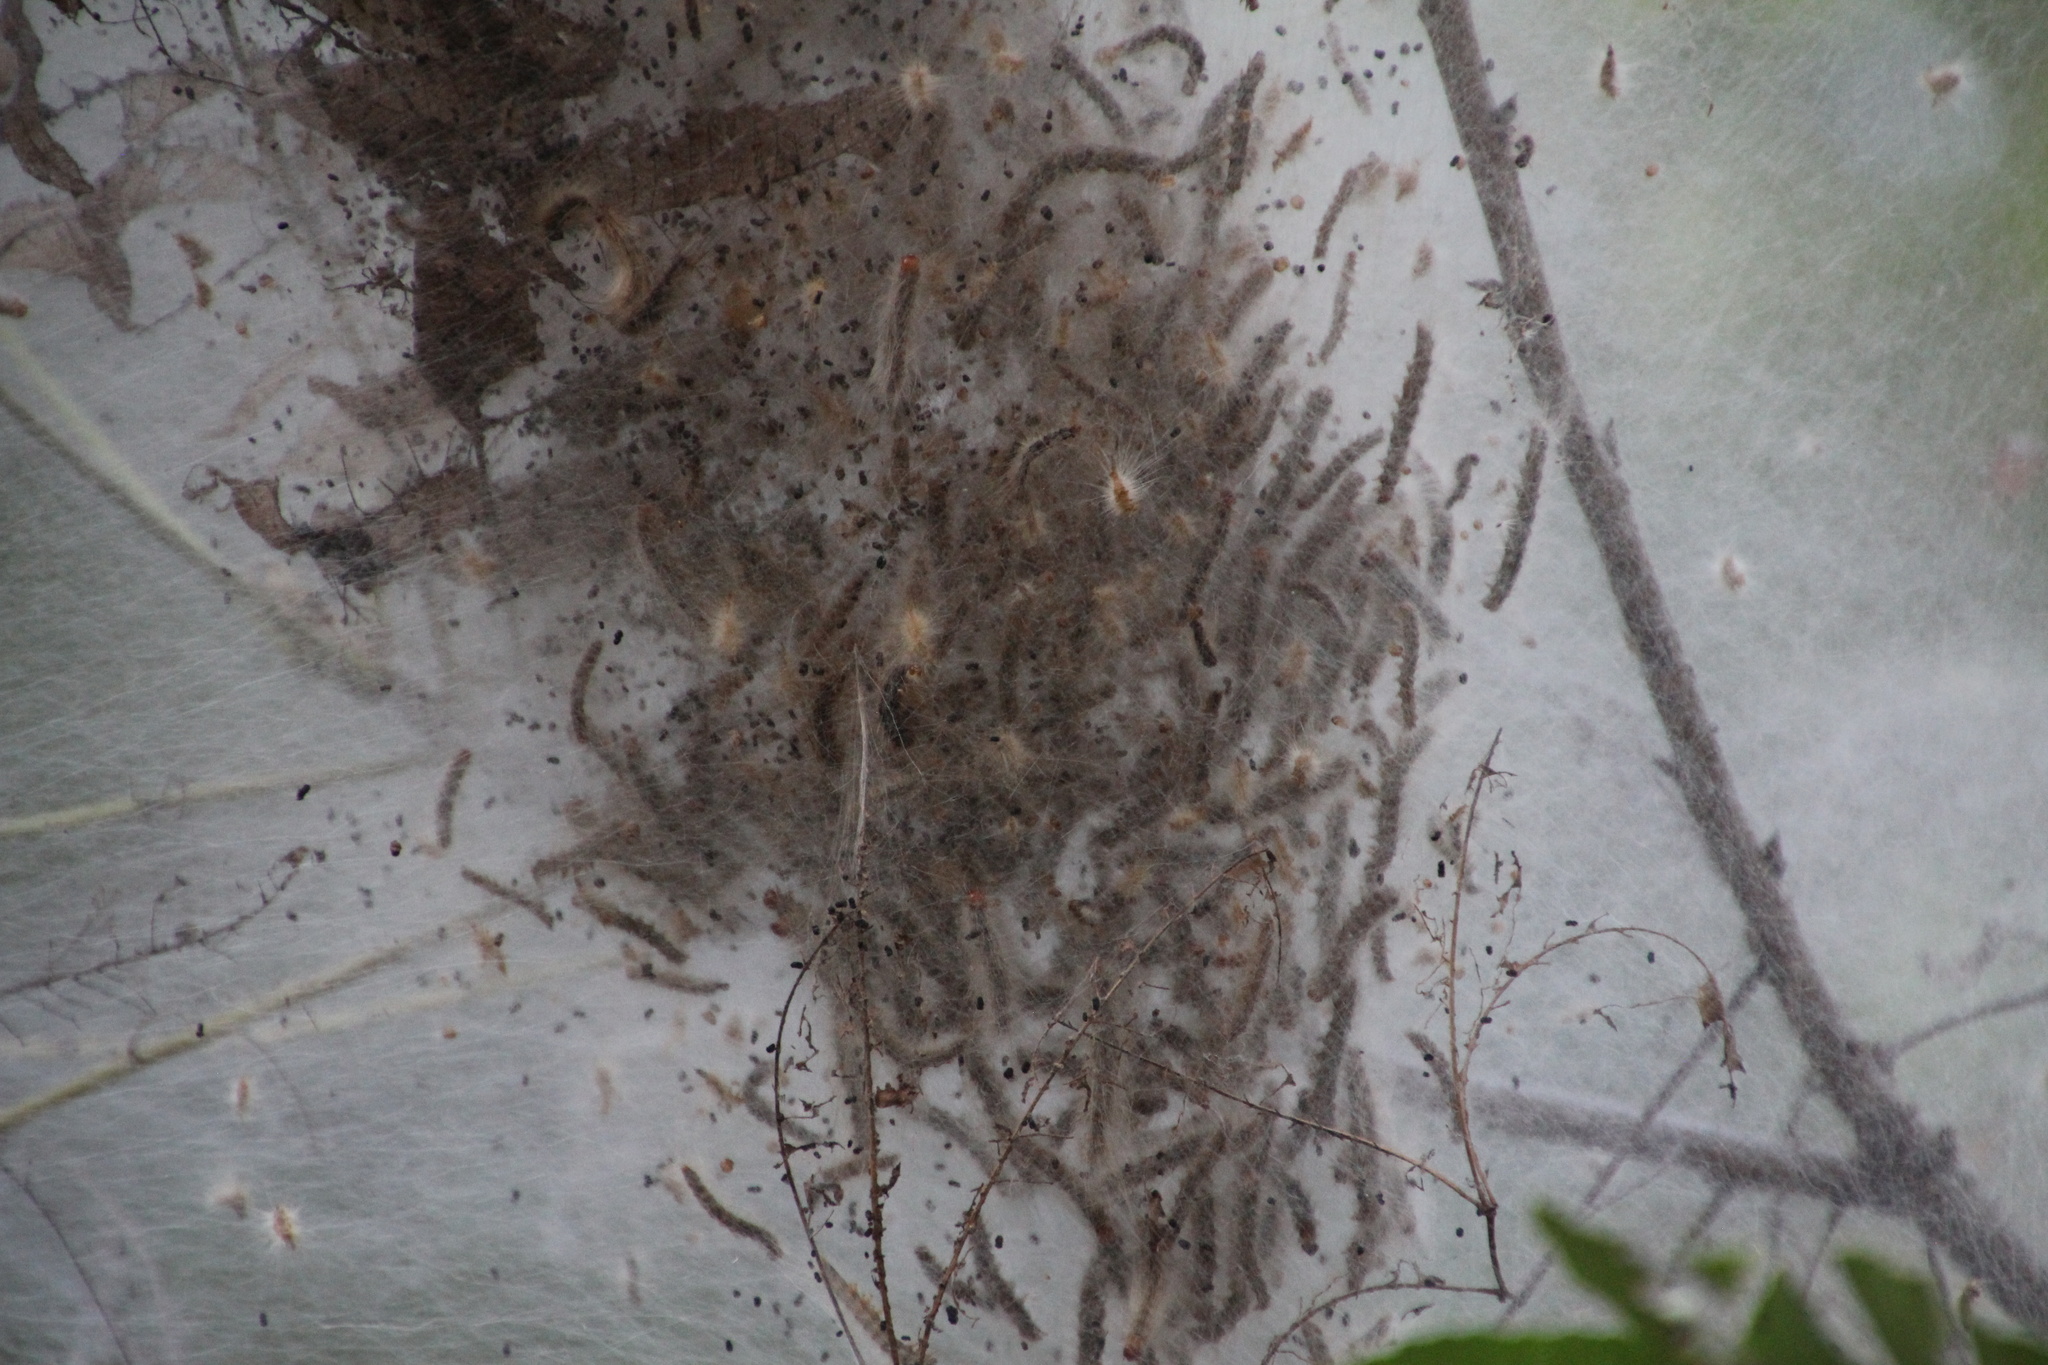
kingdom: Animalia
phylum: Arthropoda
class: Insecta
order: Lepidoptera
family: Erebidae
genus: Hyphantria
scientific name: Hyphantria cunea
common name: American white moth
